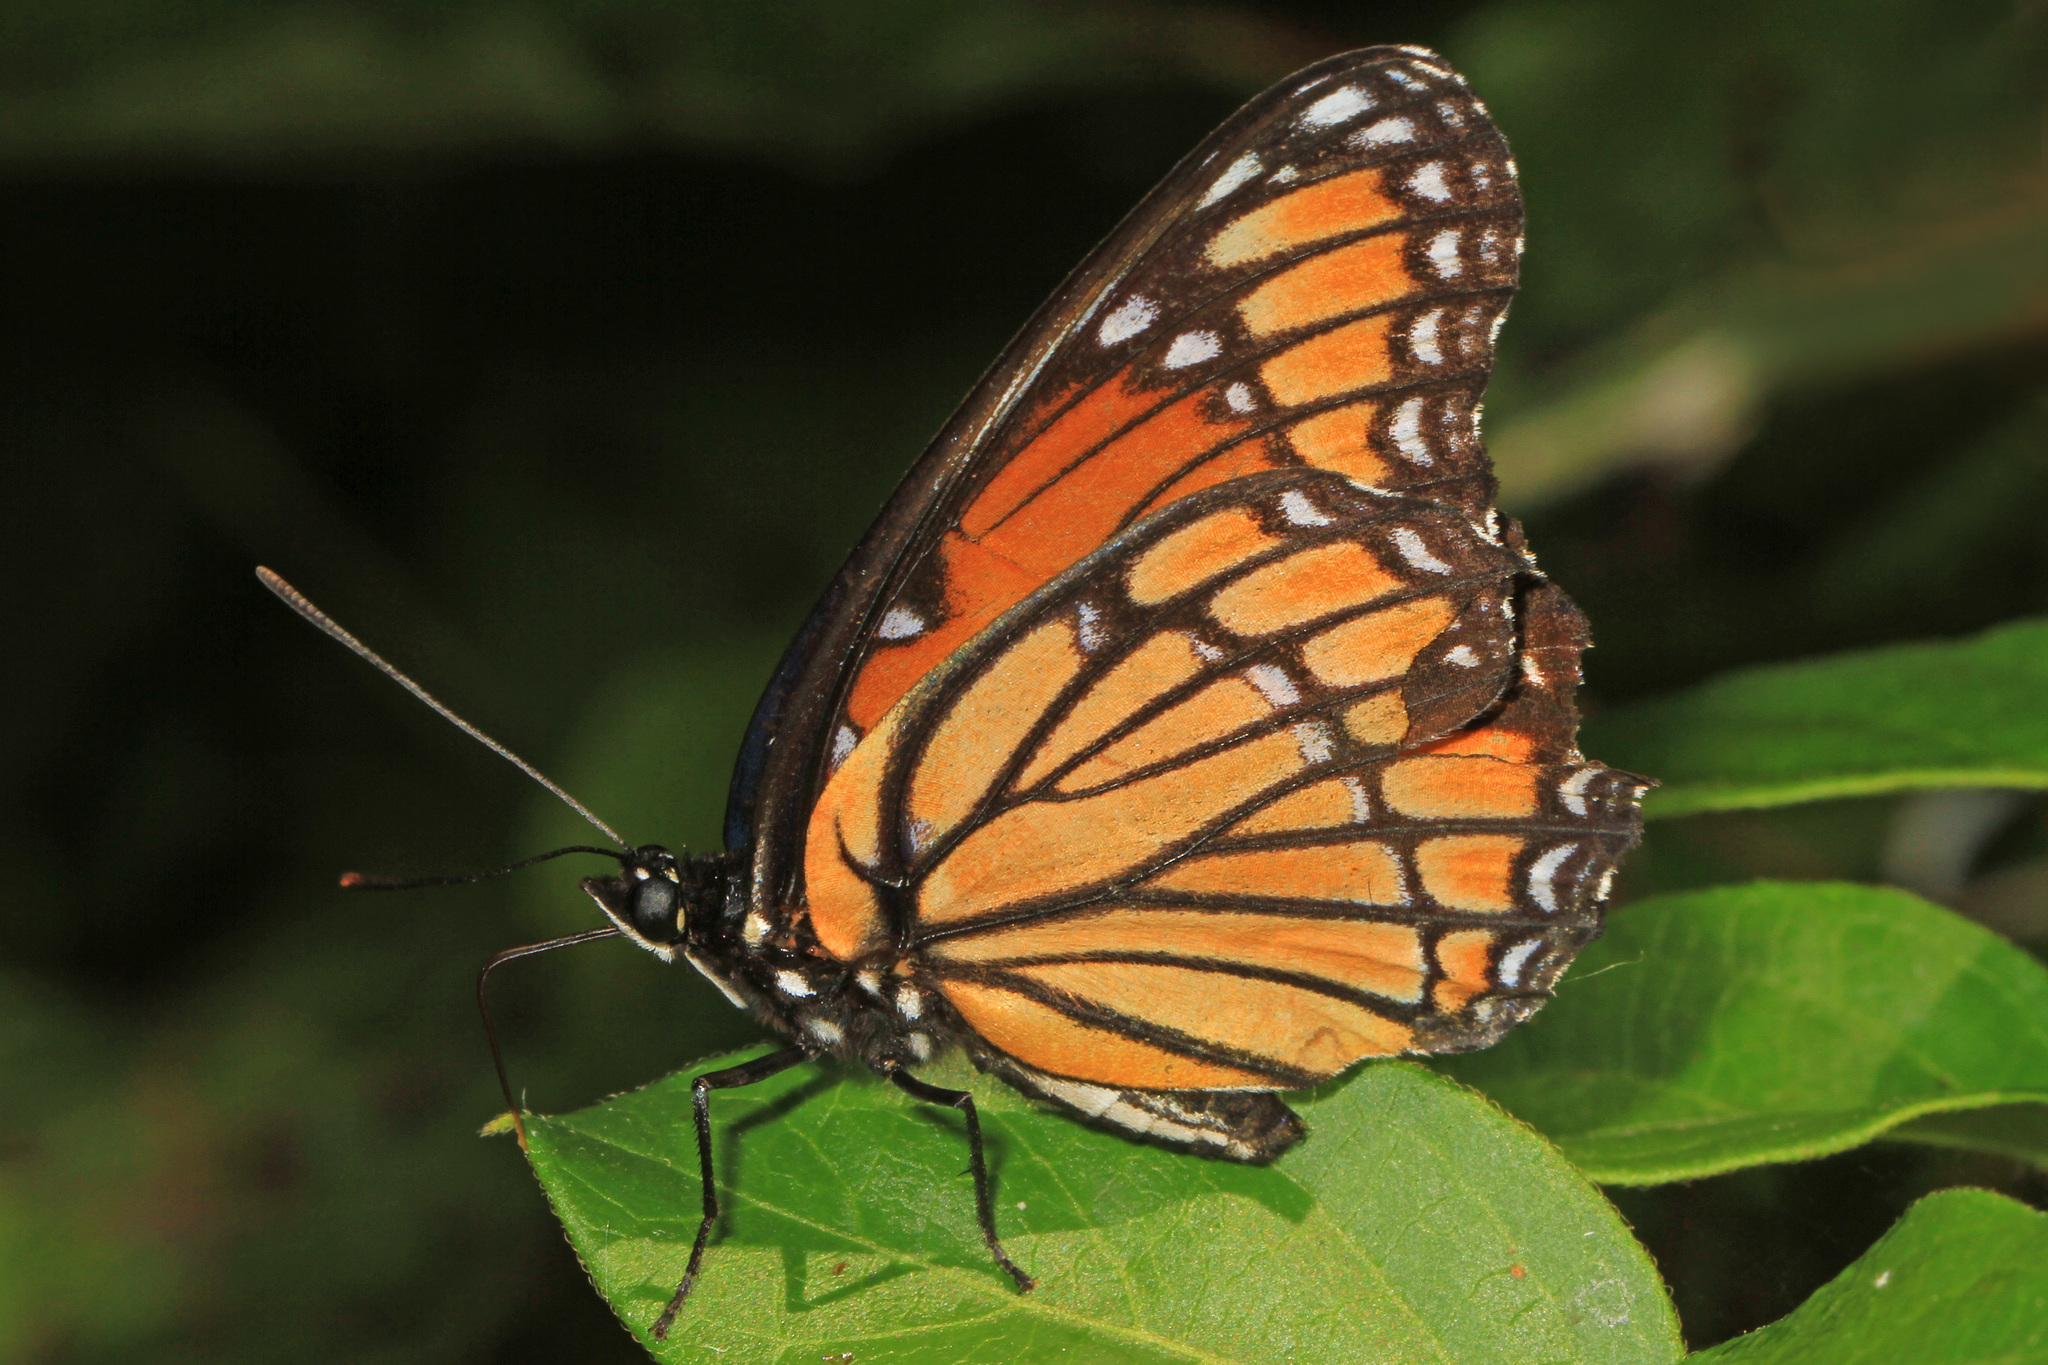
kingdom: Animalia
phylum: Arthropoda
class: Insecta
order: Lepidoptera
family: Nymphalidae
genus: Limenitis
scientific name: Limenitis archippus
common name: Viceroy
